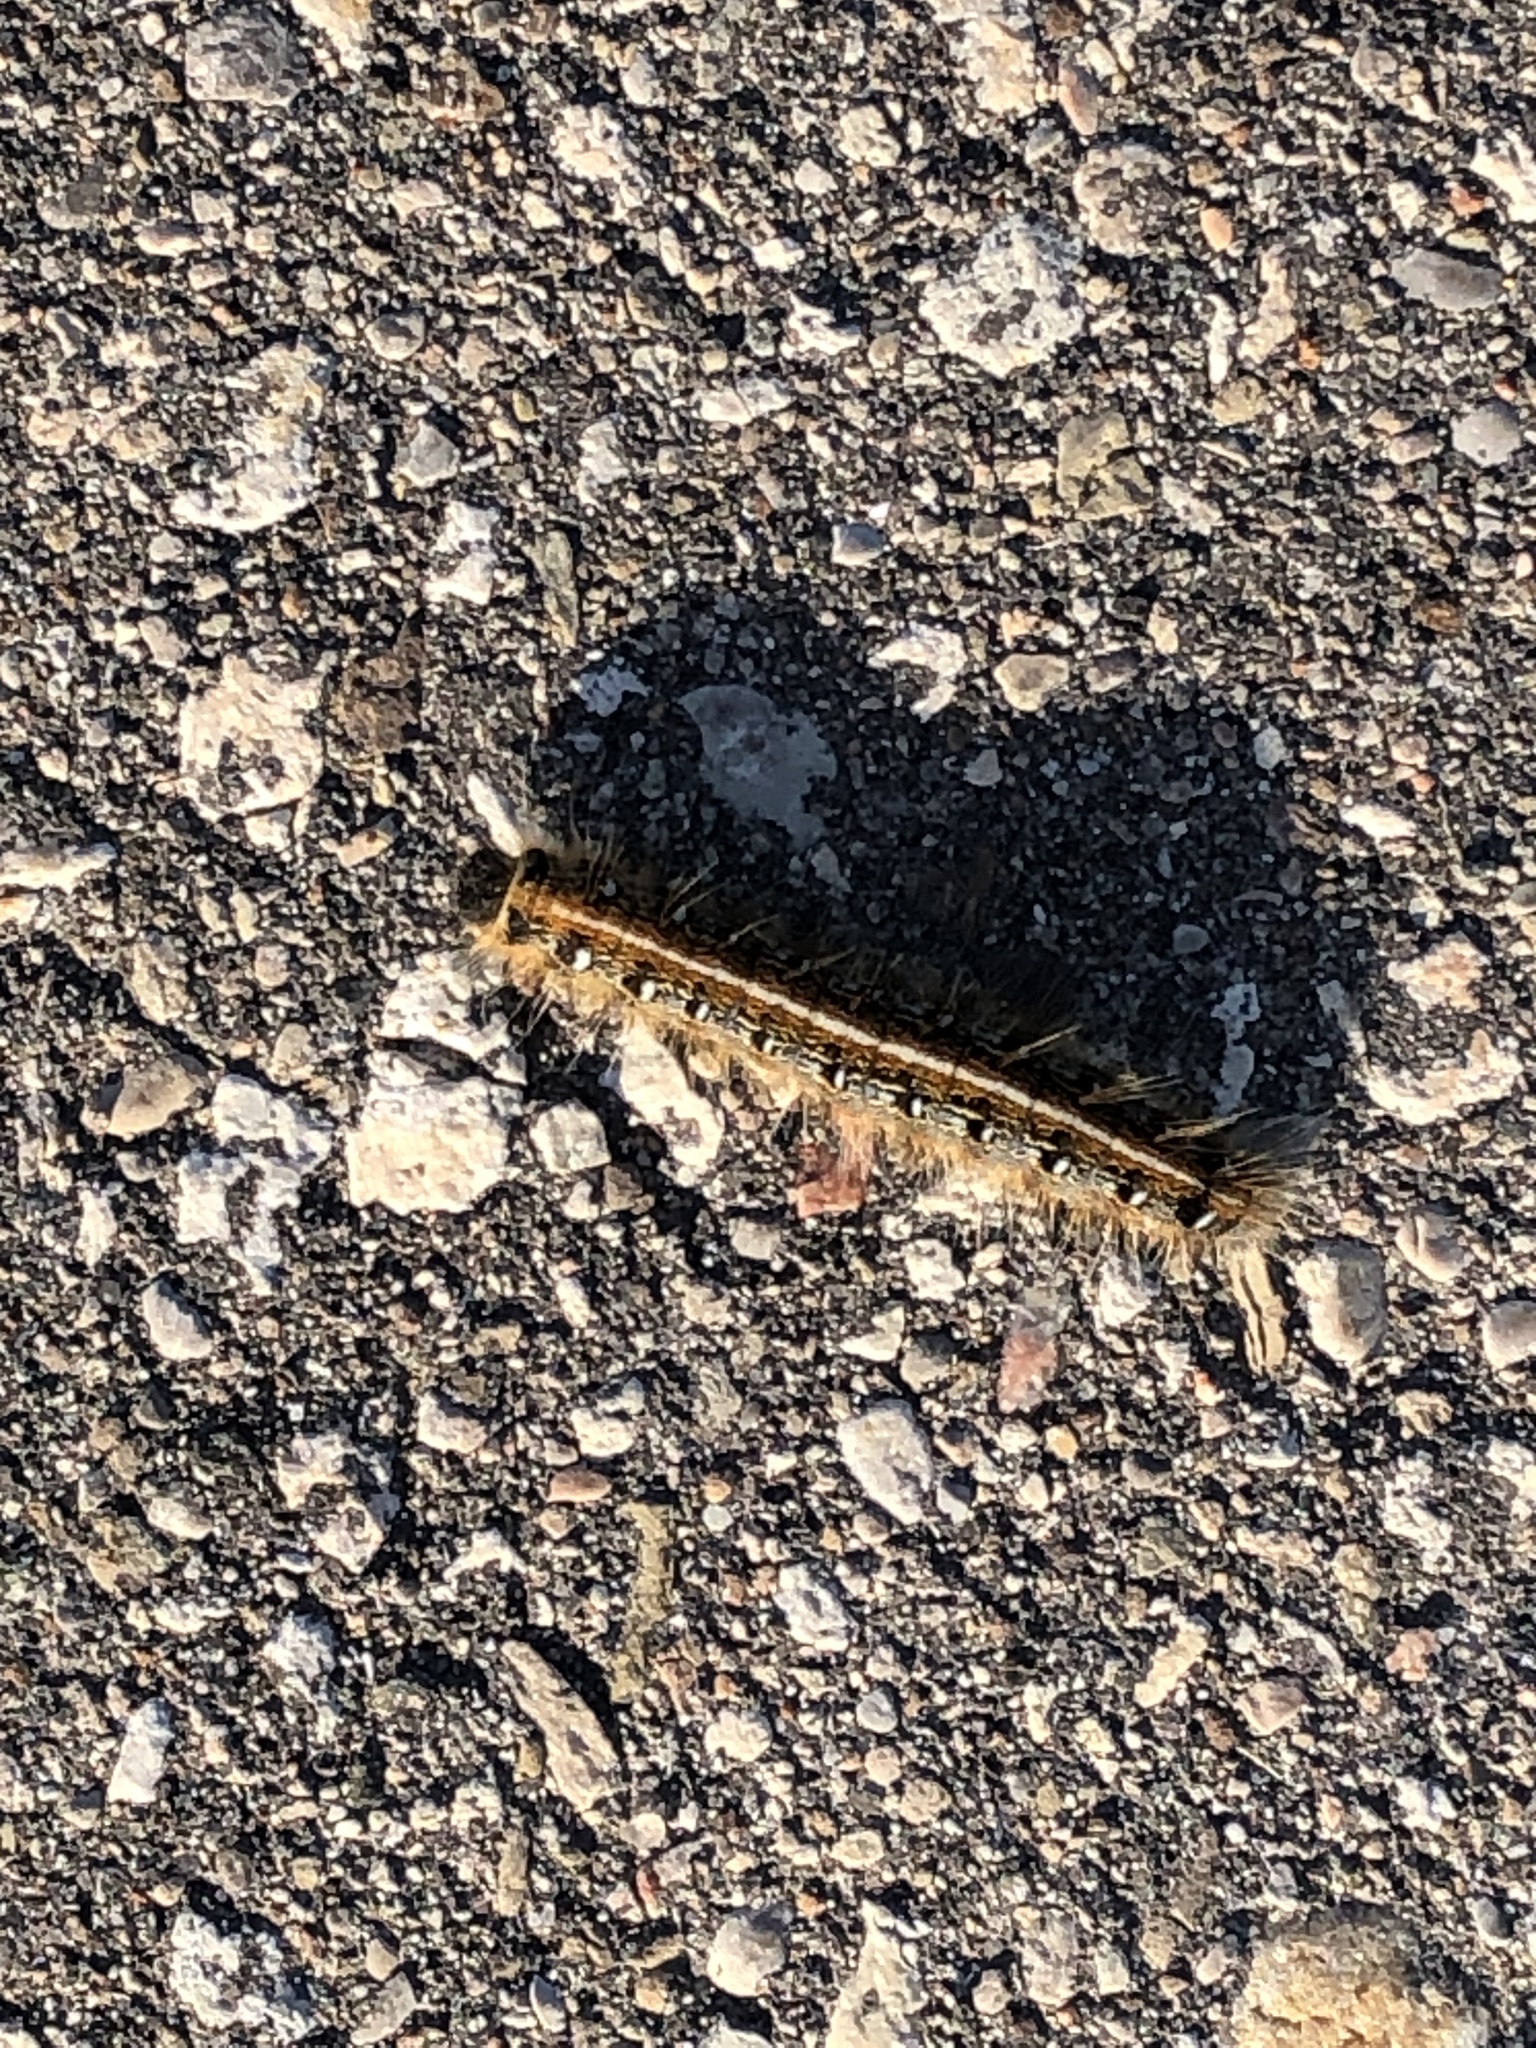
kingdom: Animalia
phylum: Arthropoda
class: Insecta
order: Lepidoptera
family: Lasiocampidae
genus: Malacosoma
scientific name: Malacosoma americana
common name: Eastern tent caterpillar moth
